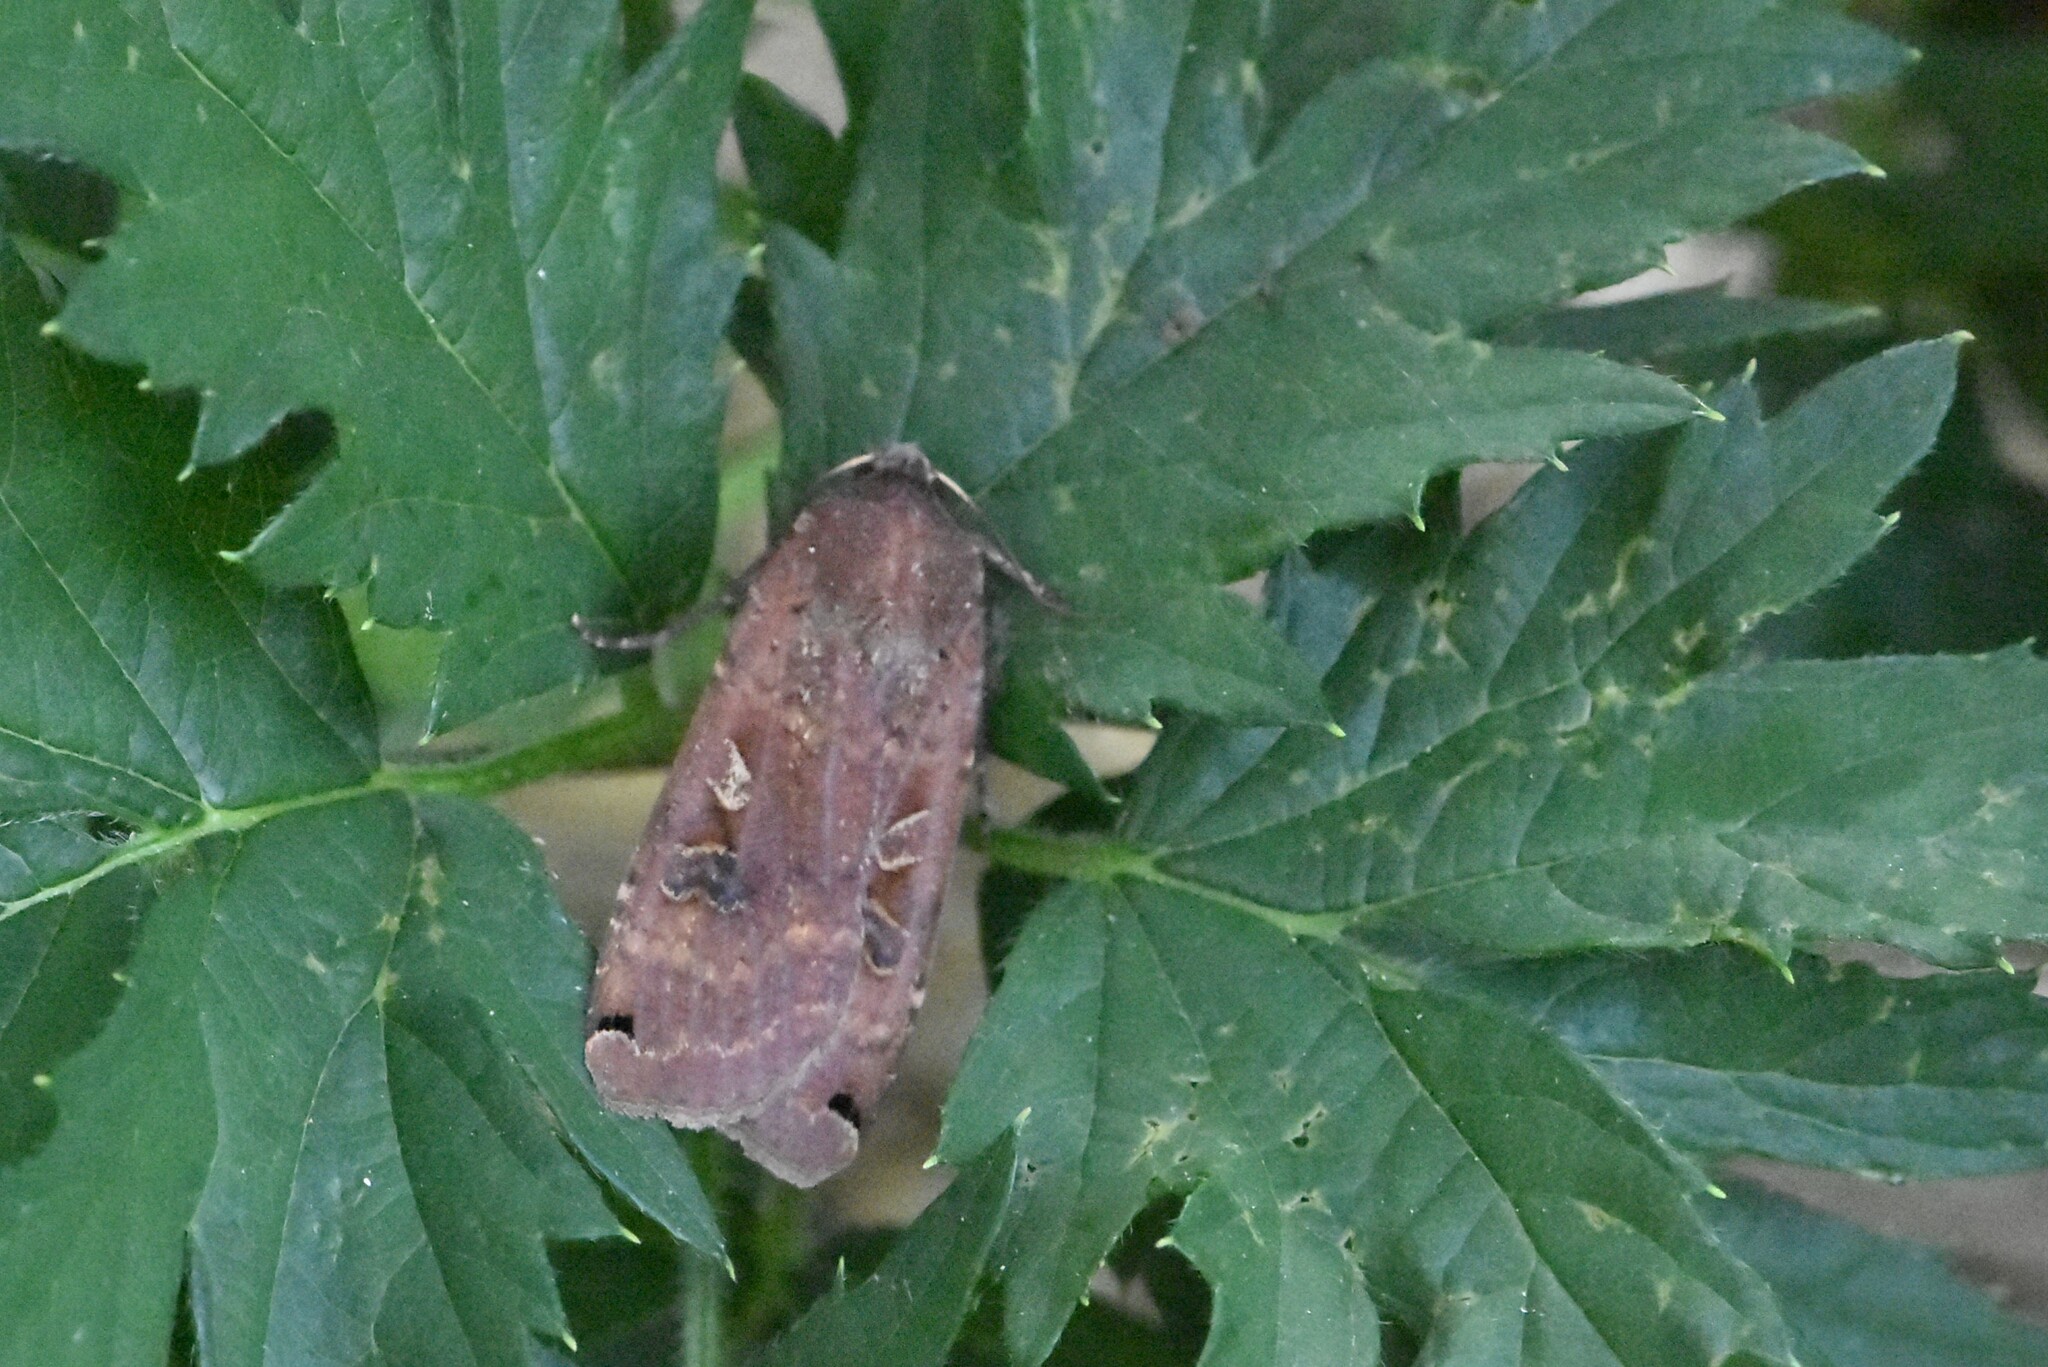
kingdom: Animalia
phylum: Arthropoda
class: Insecta
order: Lepidoptera
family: Noctuidae
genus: Noctua
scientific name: Noctua pronuba
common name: Large yellow underwing
